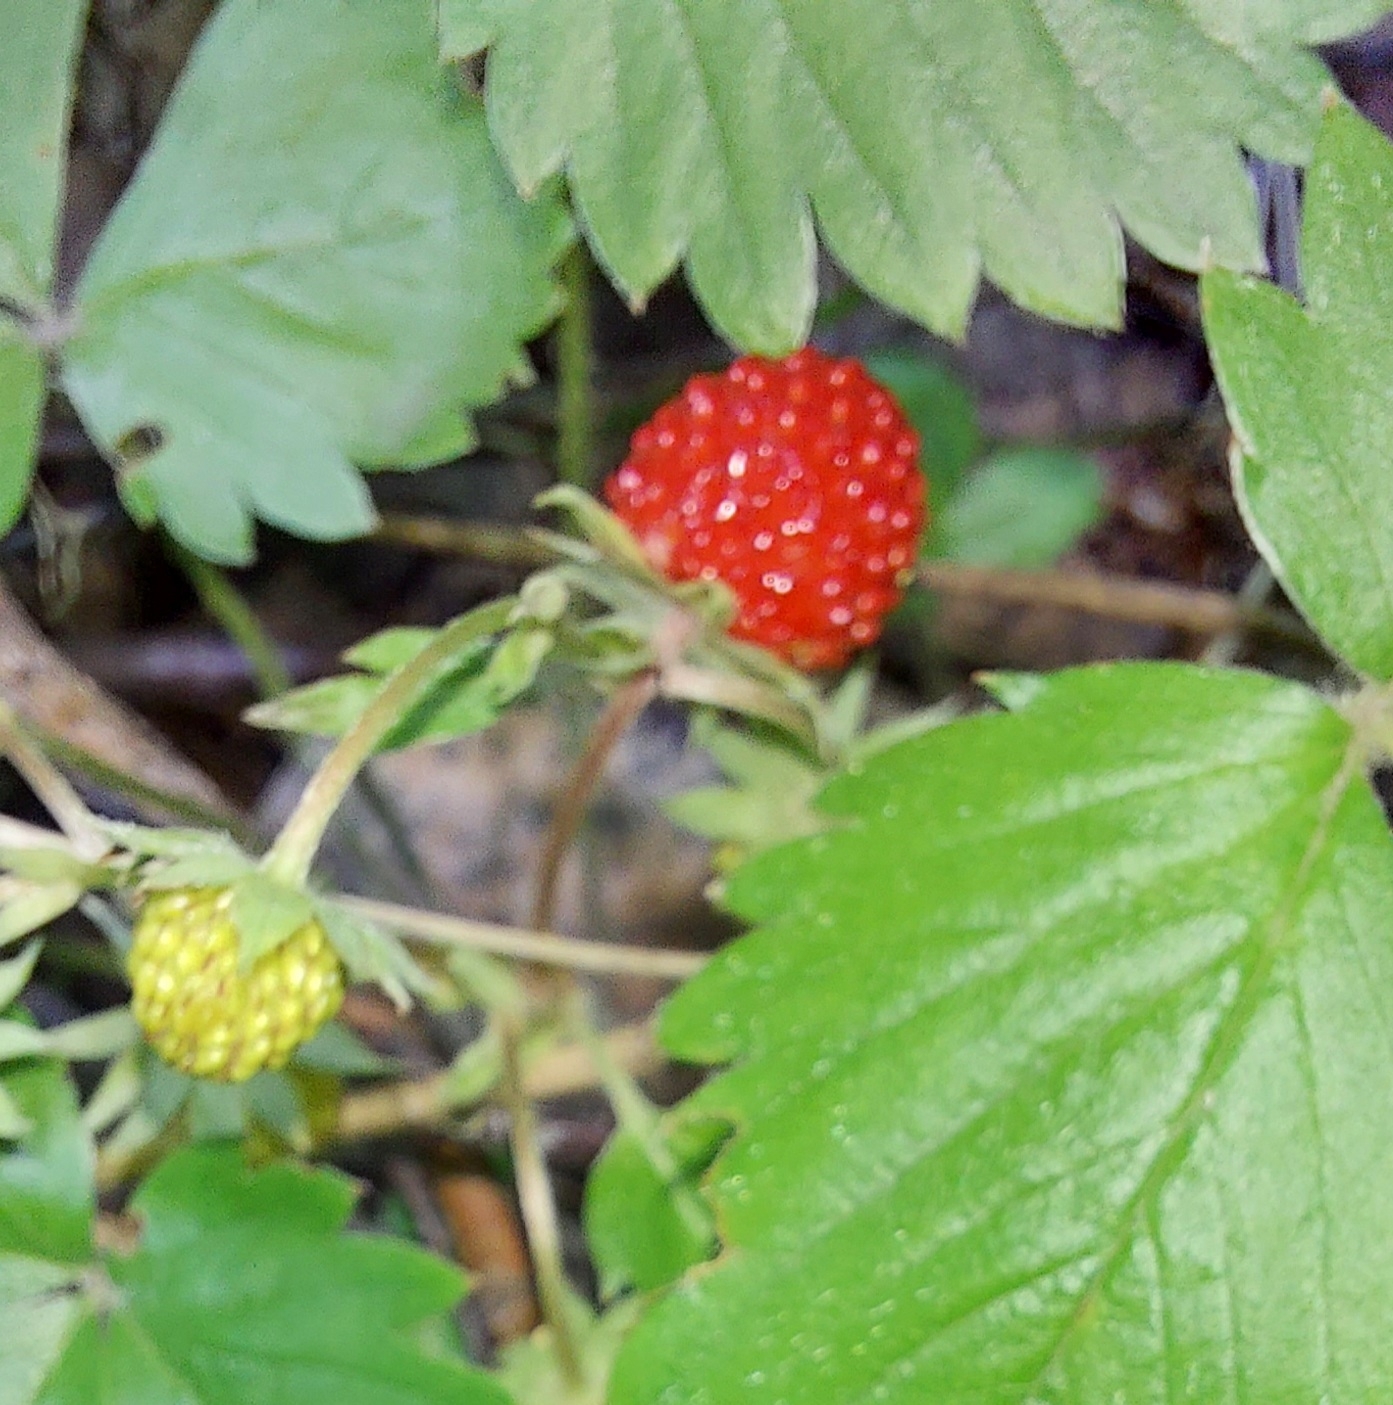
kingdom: Plantae
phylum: Tracheophyta
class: Magnoliopsida
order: Rosales
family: Rosaceae
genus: Fragaria
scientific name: Fragaria vesca
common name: Wild strawberry
